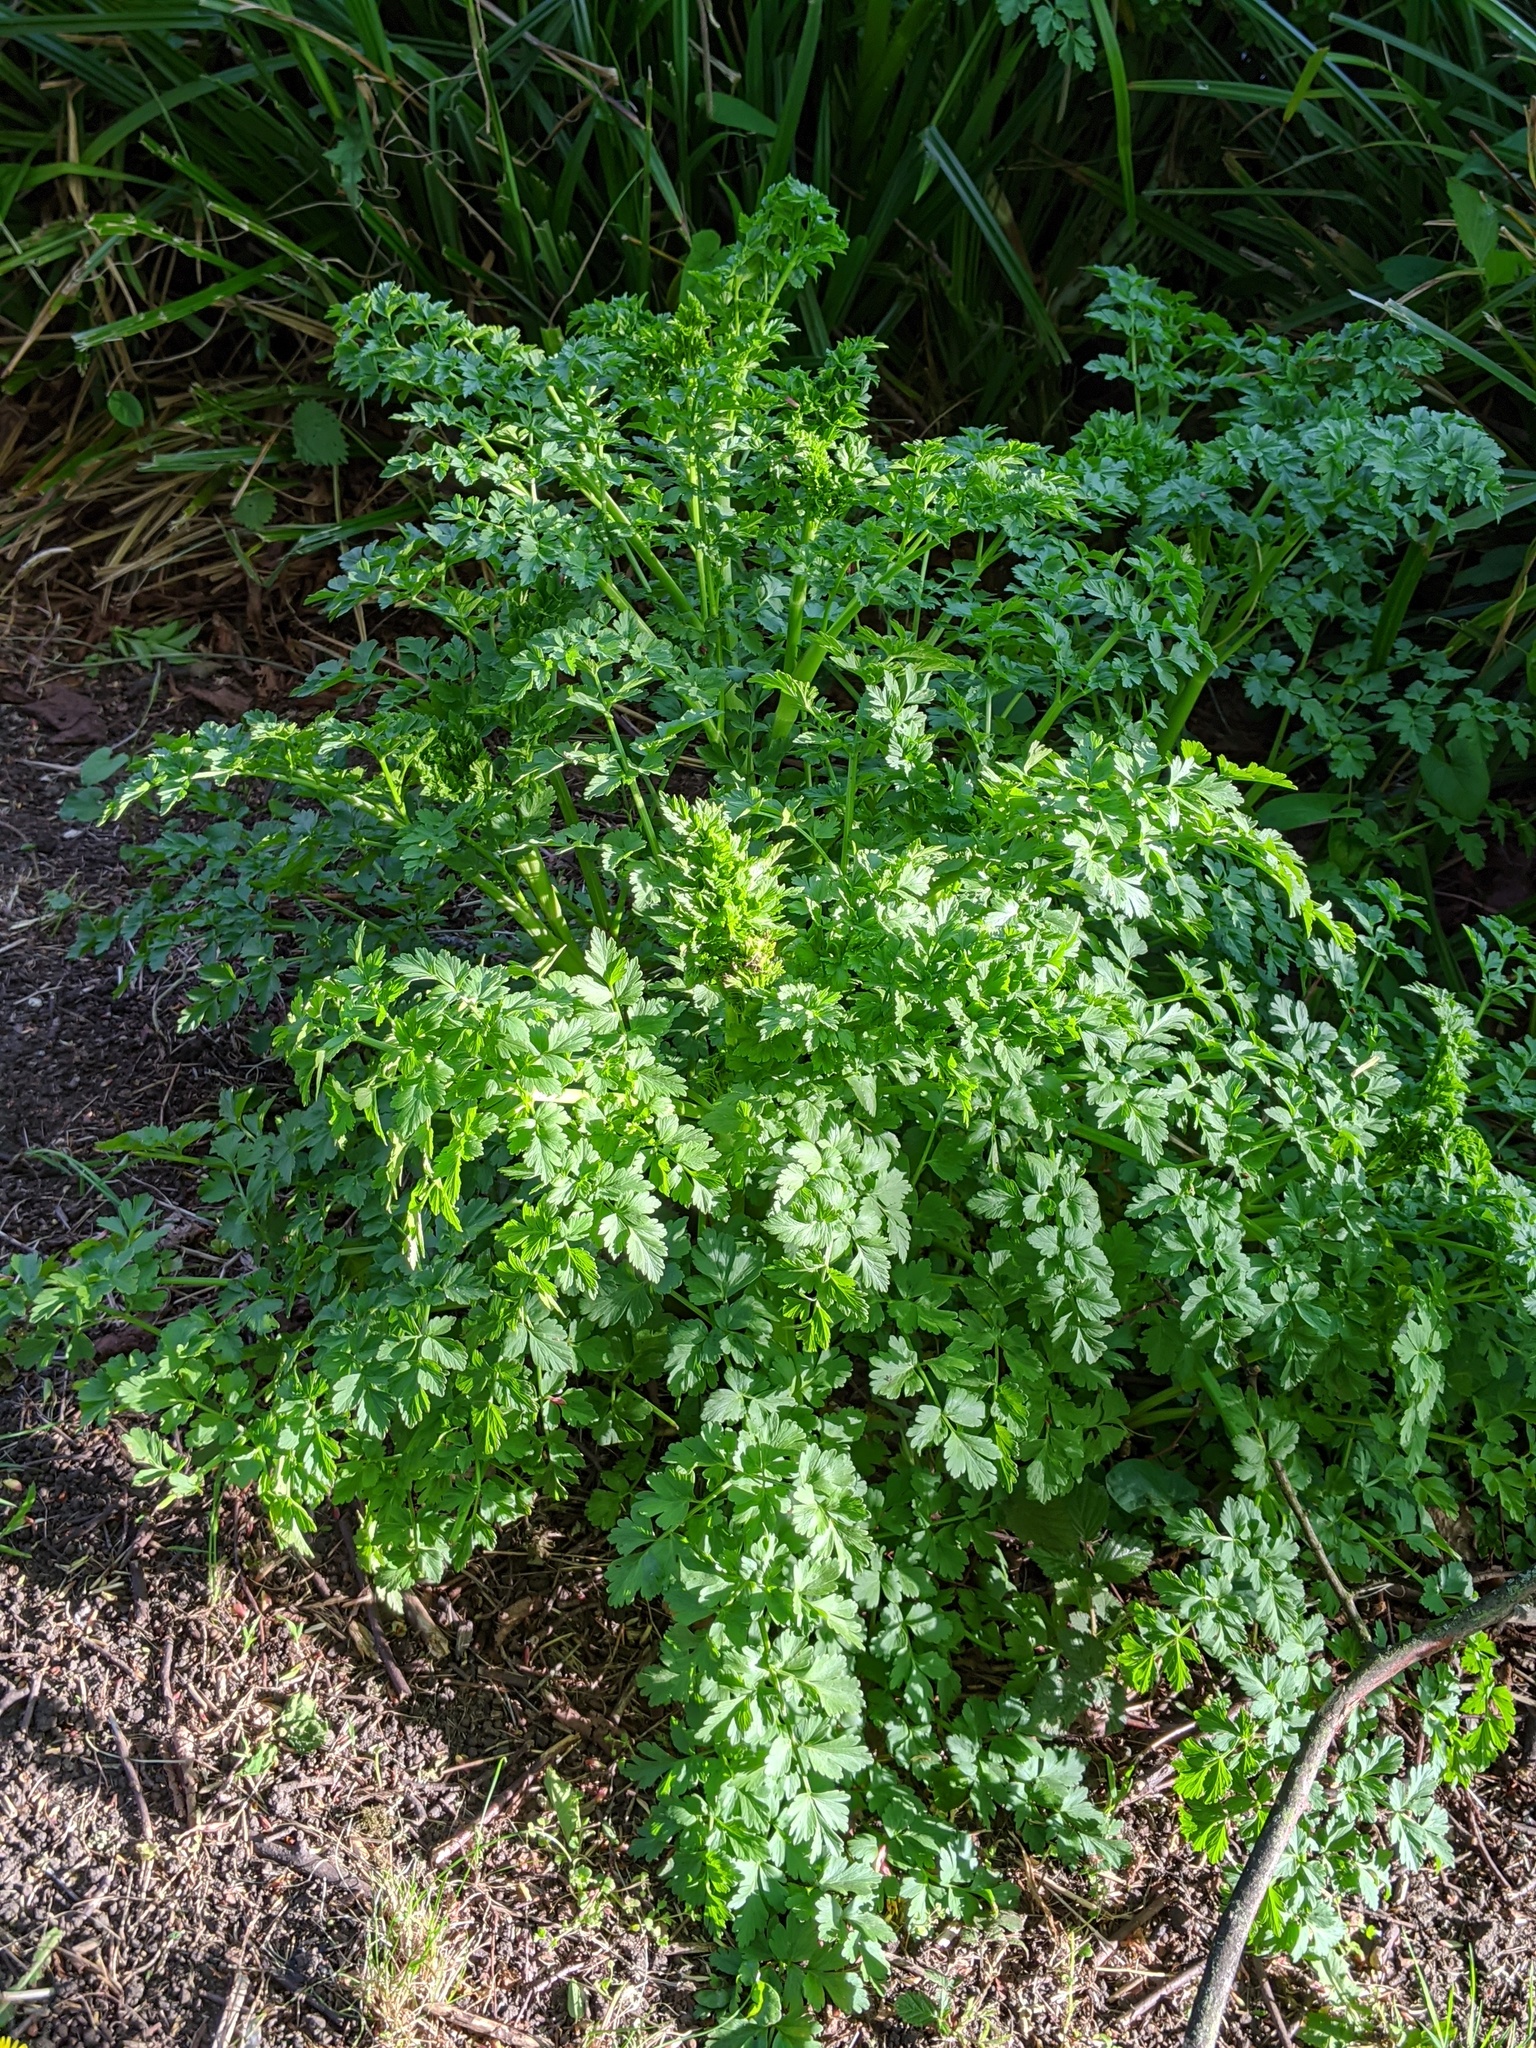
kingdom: Plantae
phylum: Tracheophyta
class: Magnoliopsida
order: Apiales
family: Apiaceae
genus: Oenanthe
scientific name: Oenanthe crocata
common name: Hemlock water-dropwort
